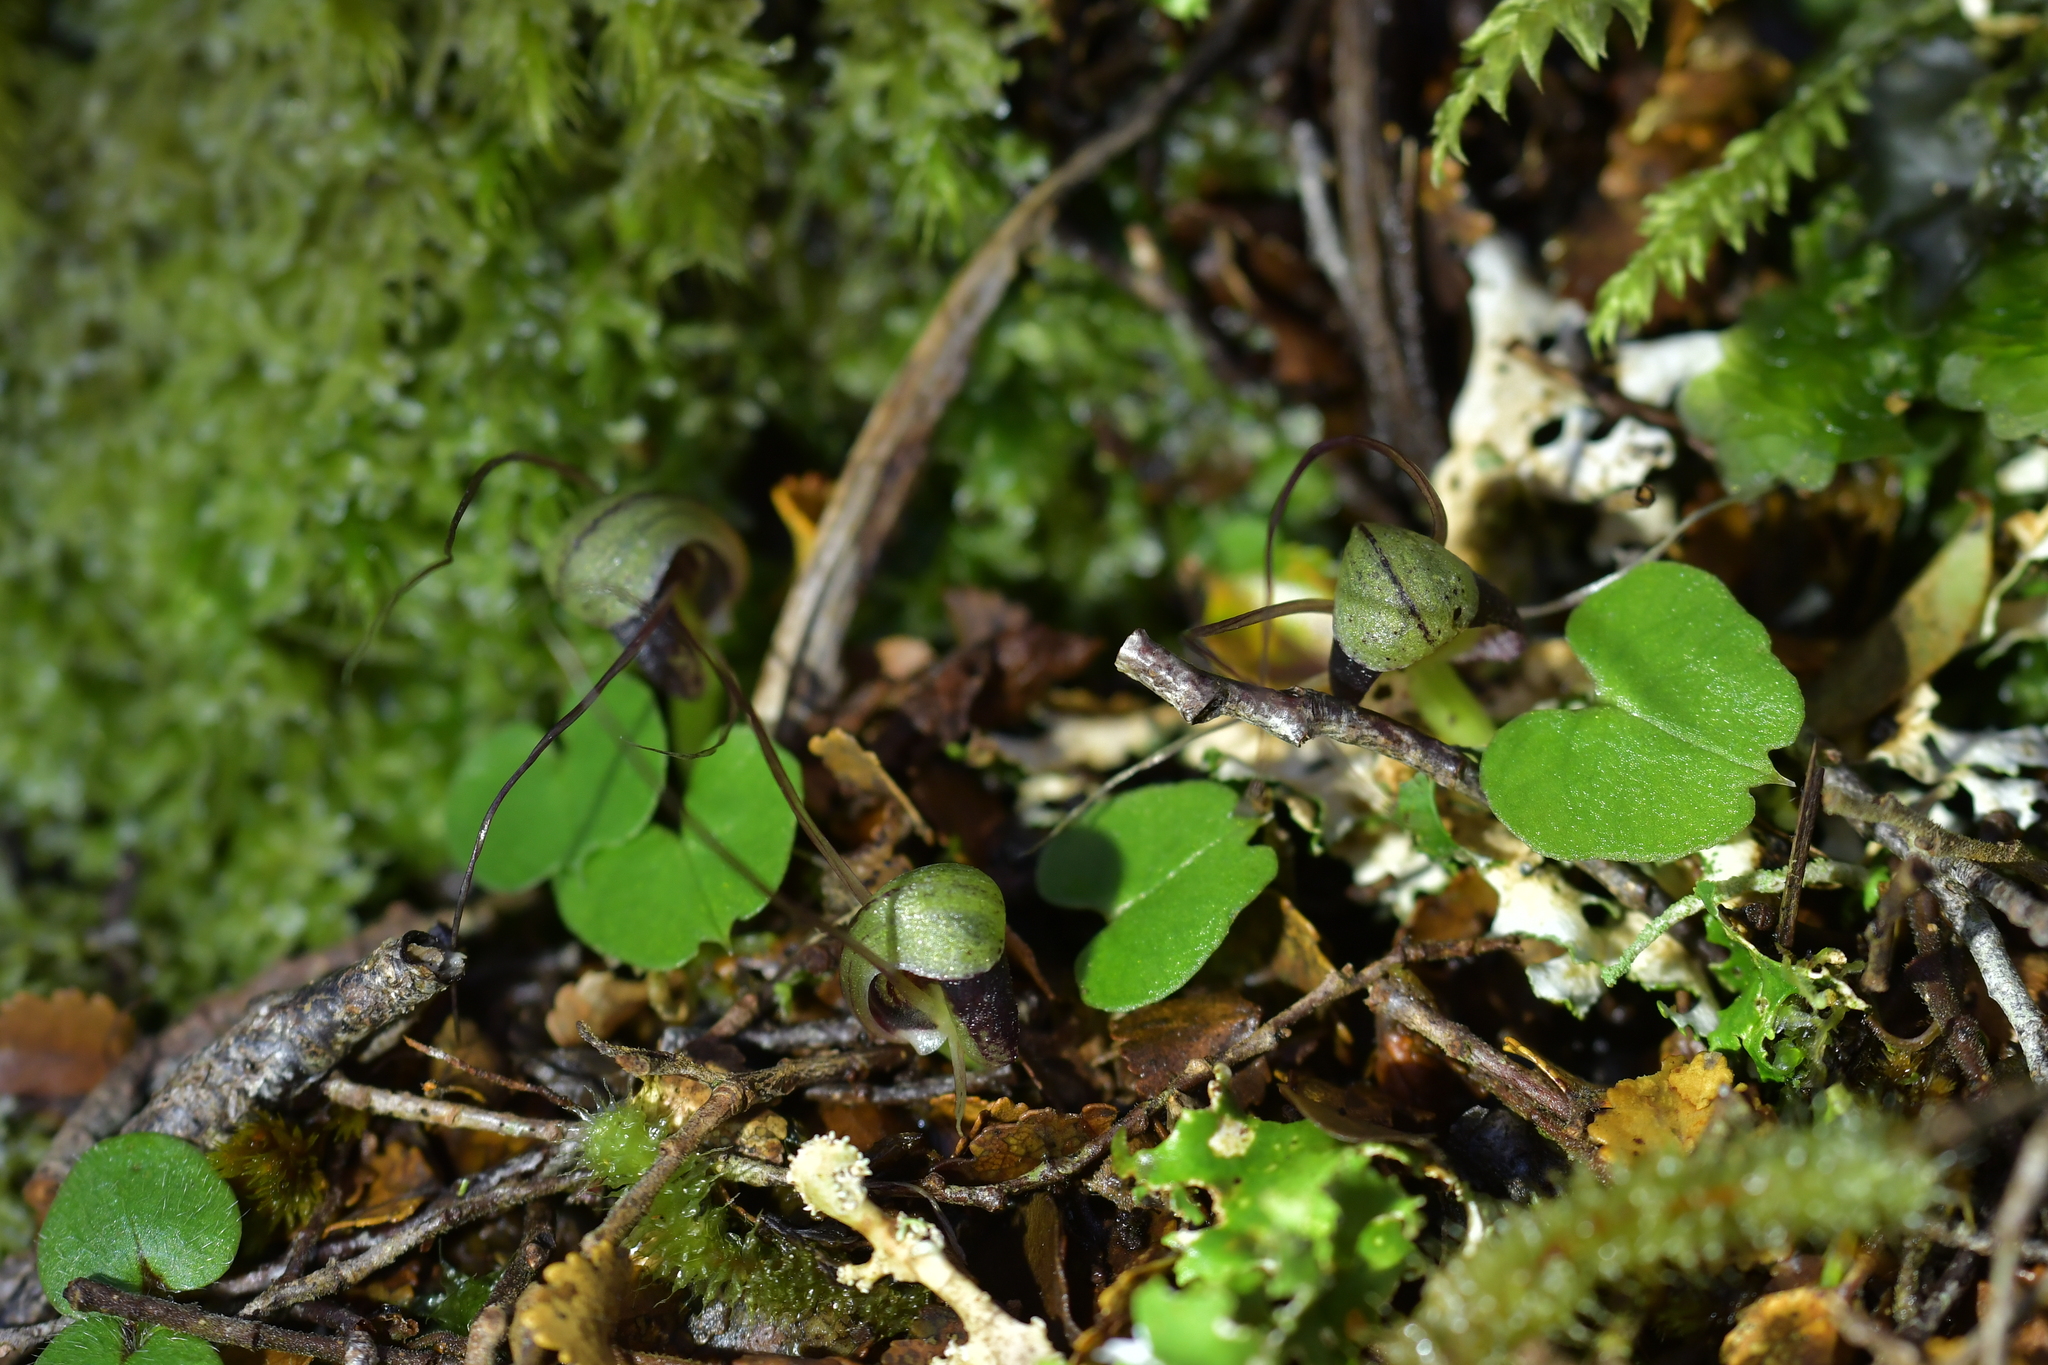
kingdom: Plantae
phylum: Tracheophyta
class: Liliopsida
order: Asparagales
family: Orchidaceae
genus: Corybas
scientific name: Corybas vitreus
